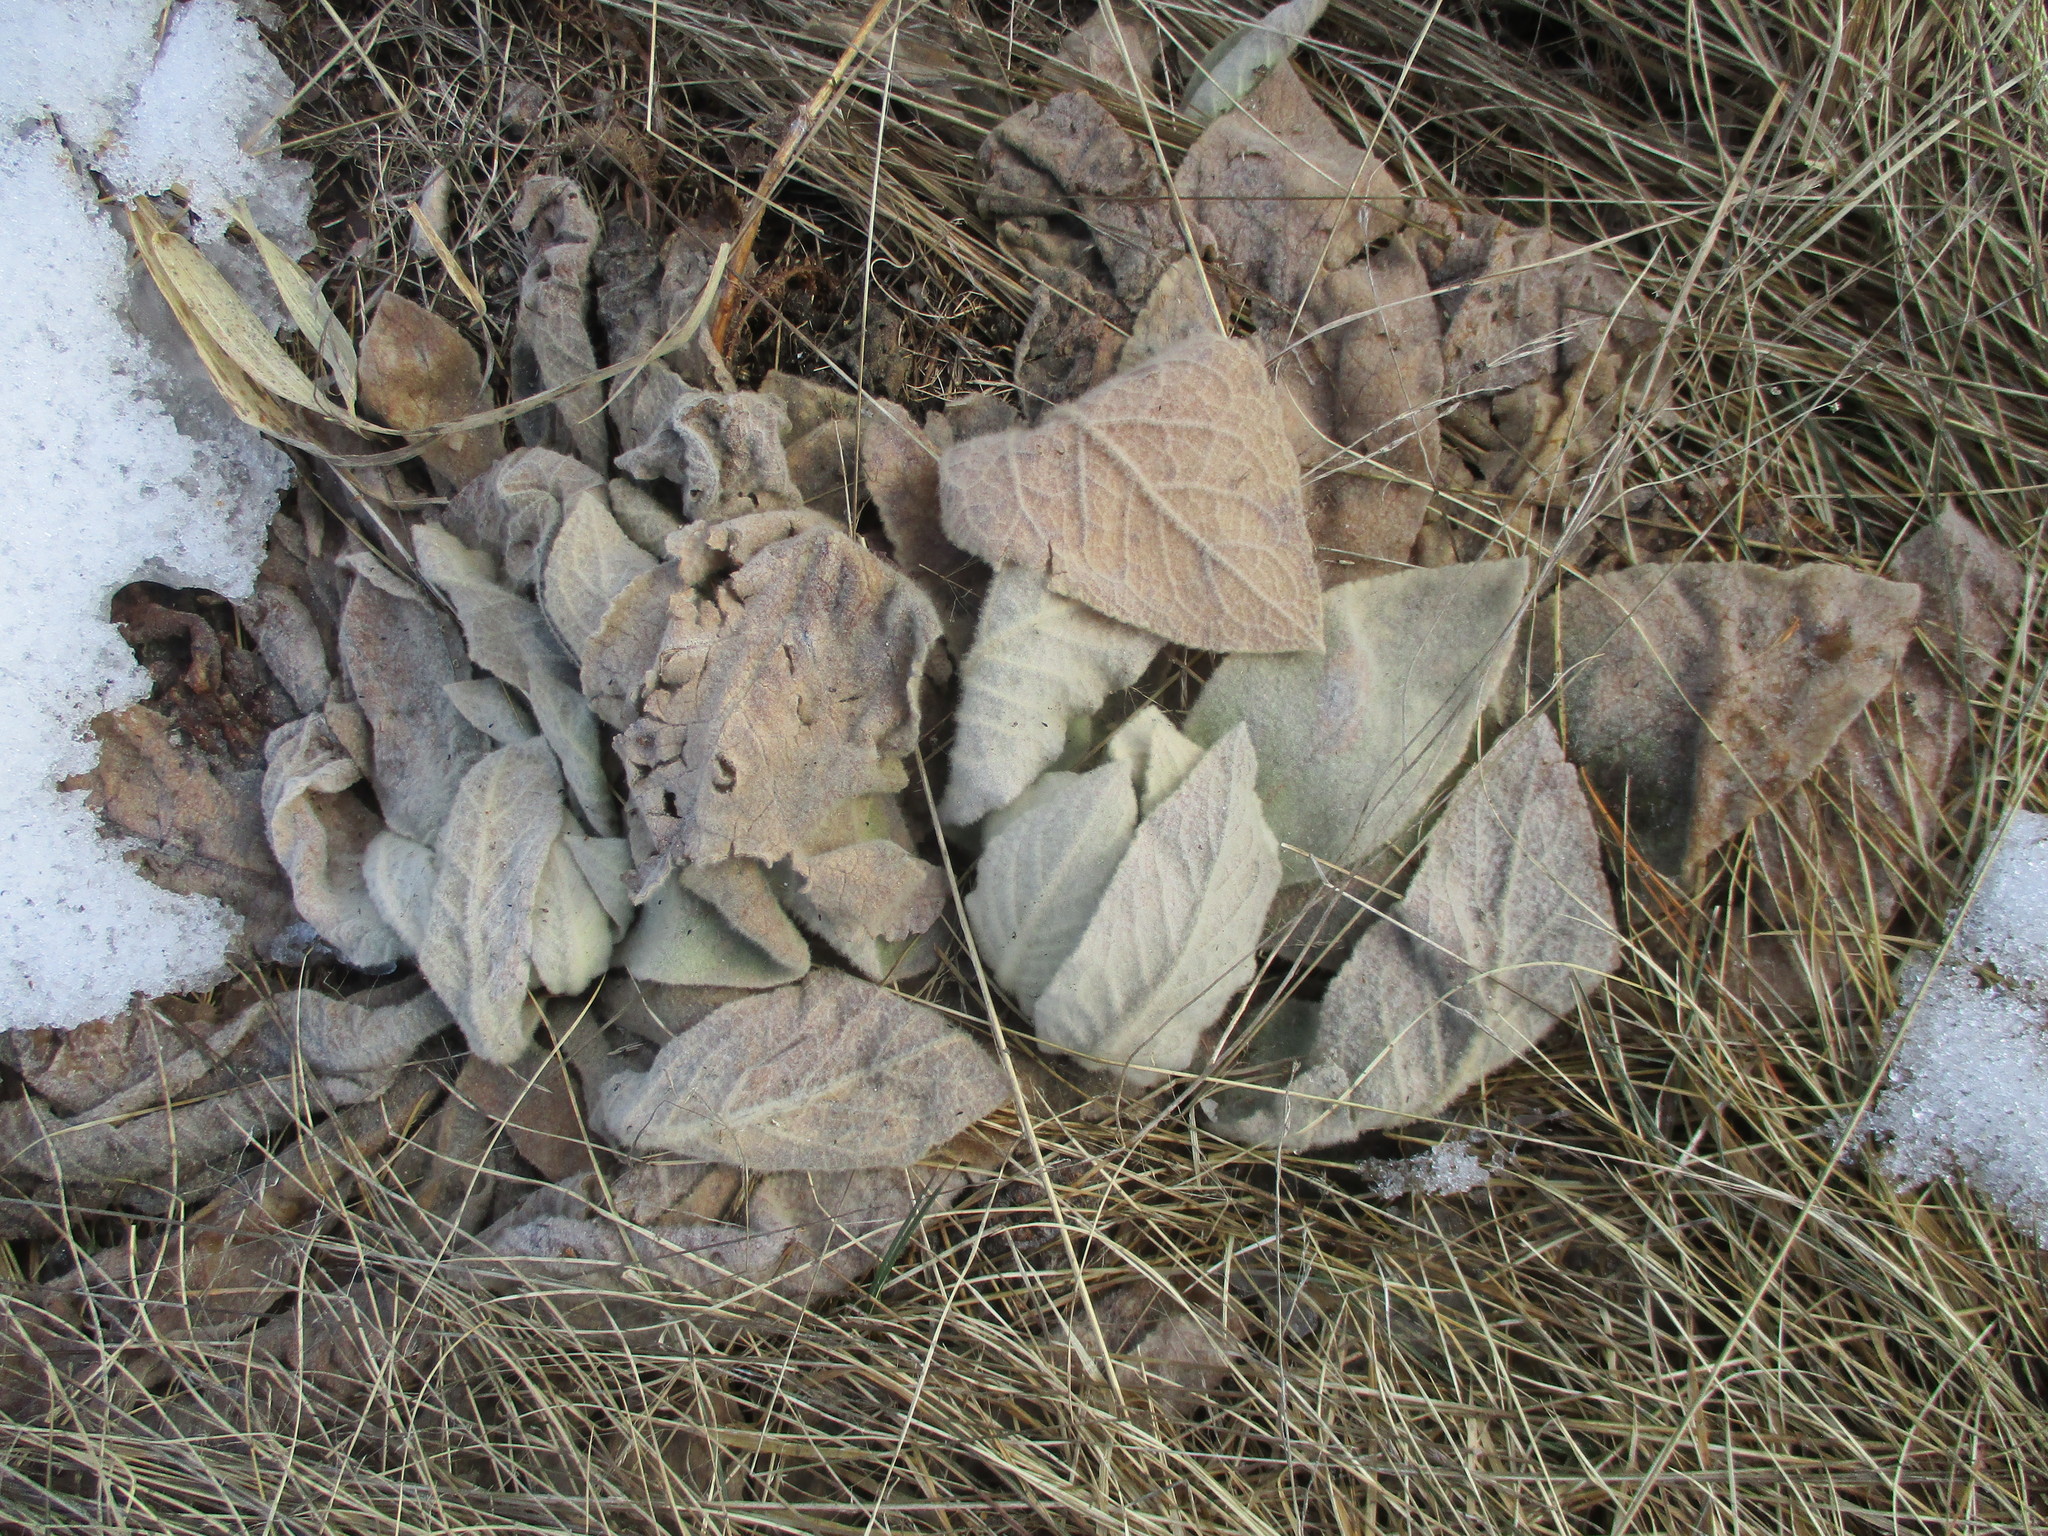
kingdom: Plantae
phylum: Tracheophyta
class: Magnoliopsida
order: Lamiales
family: Scrophulariaceae
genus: Verbascum
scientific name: Verbascum thapsus
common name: Common mullein
